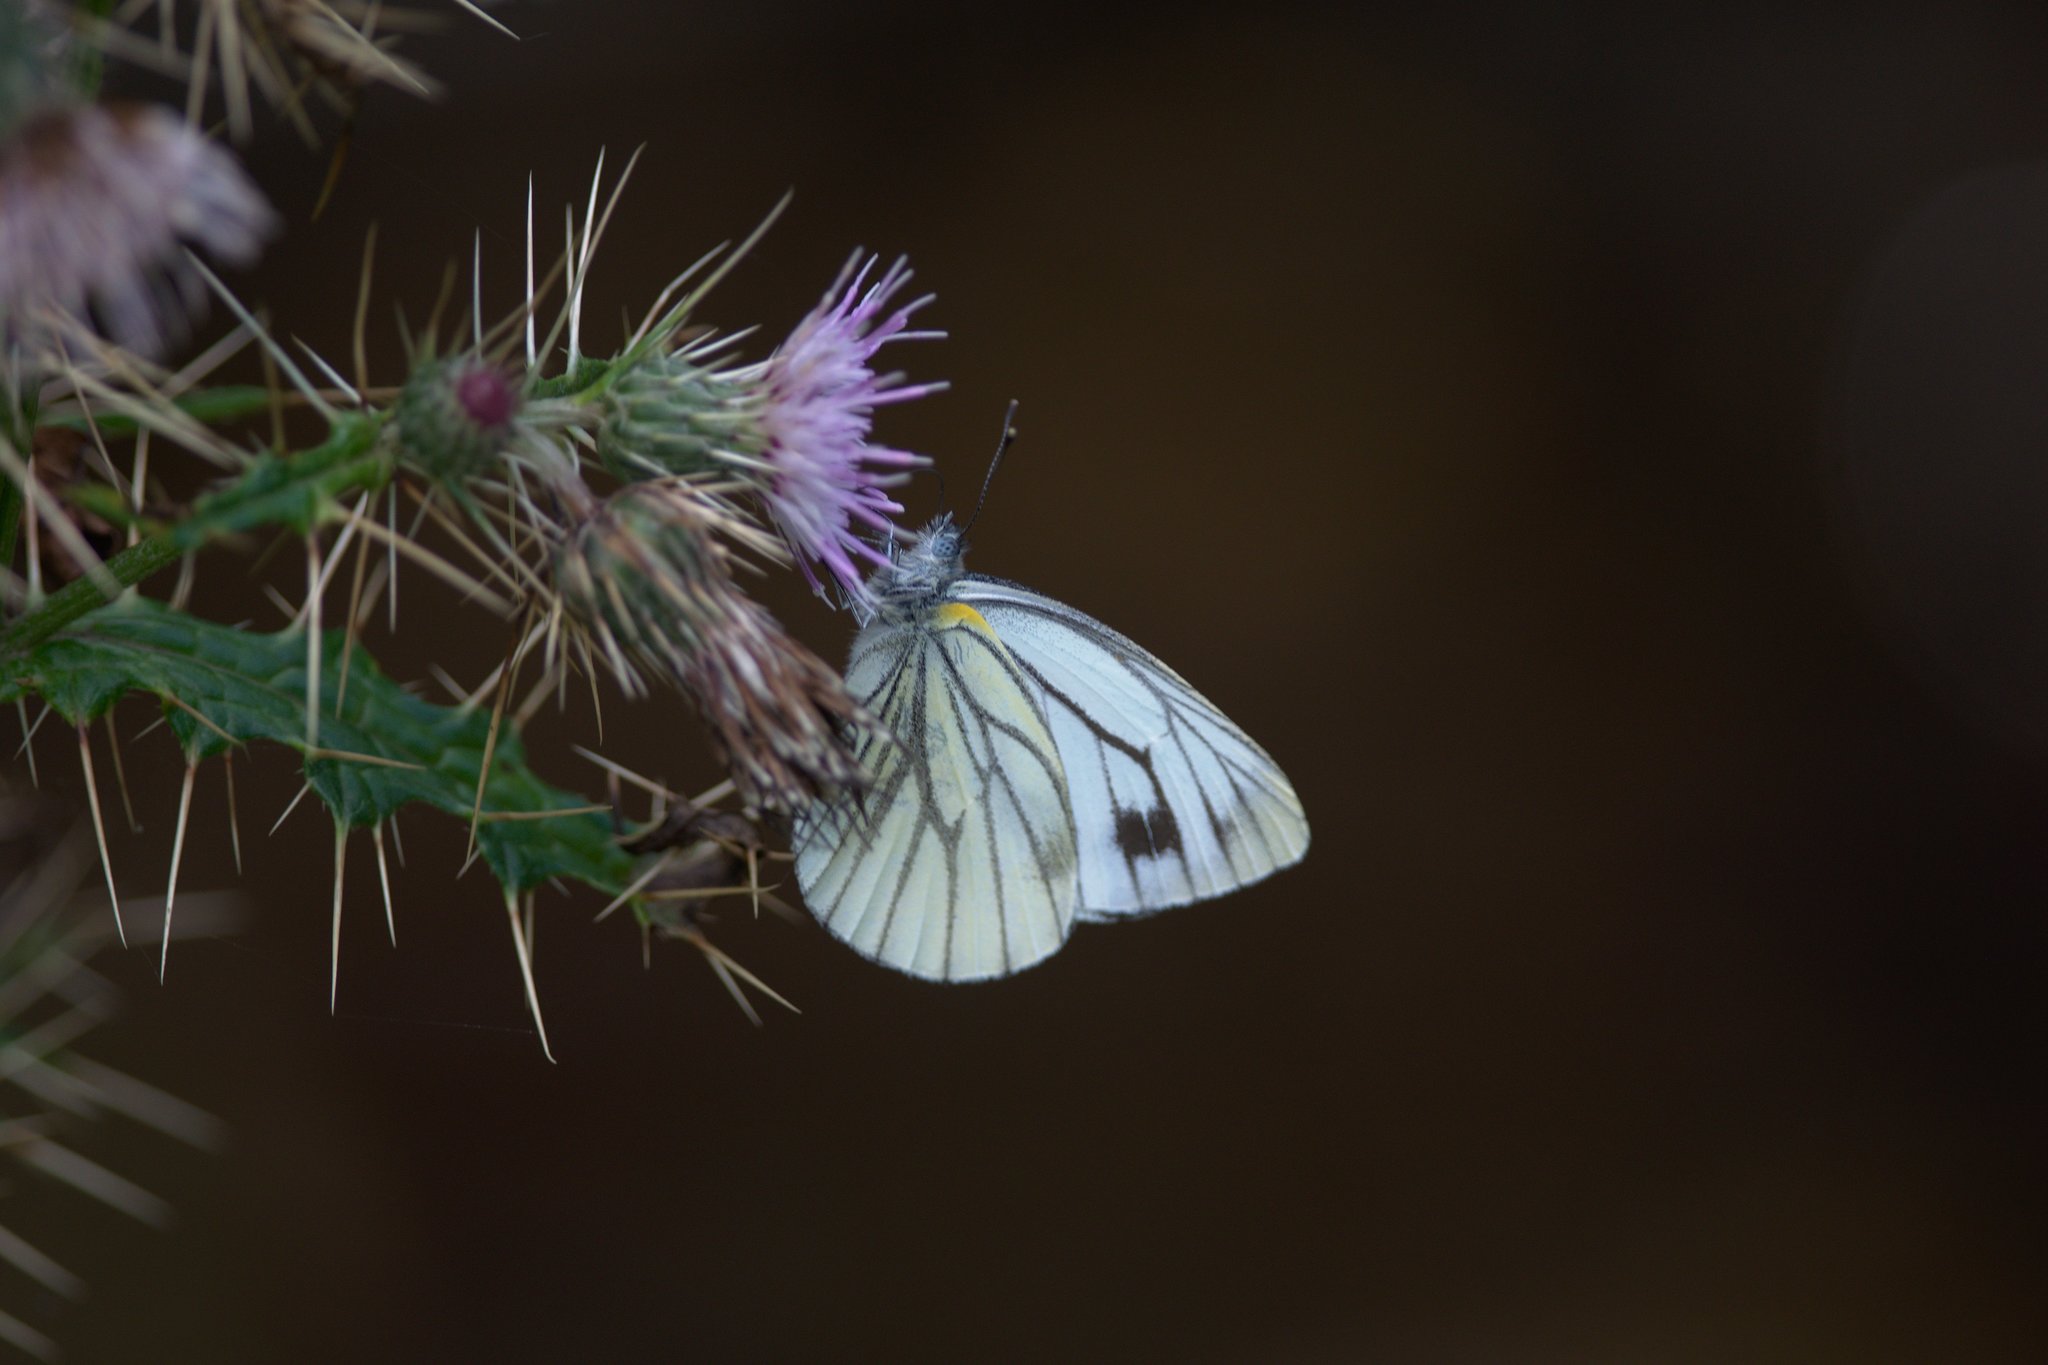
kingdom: Animalia
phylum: Arthropoda
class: Insecta
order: Lepidoptera
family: Pieridae
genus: Pieris
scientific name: Pieris melete
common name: Asian green-veined white
